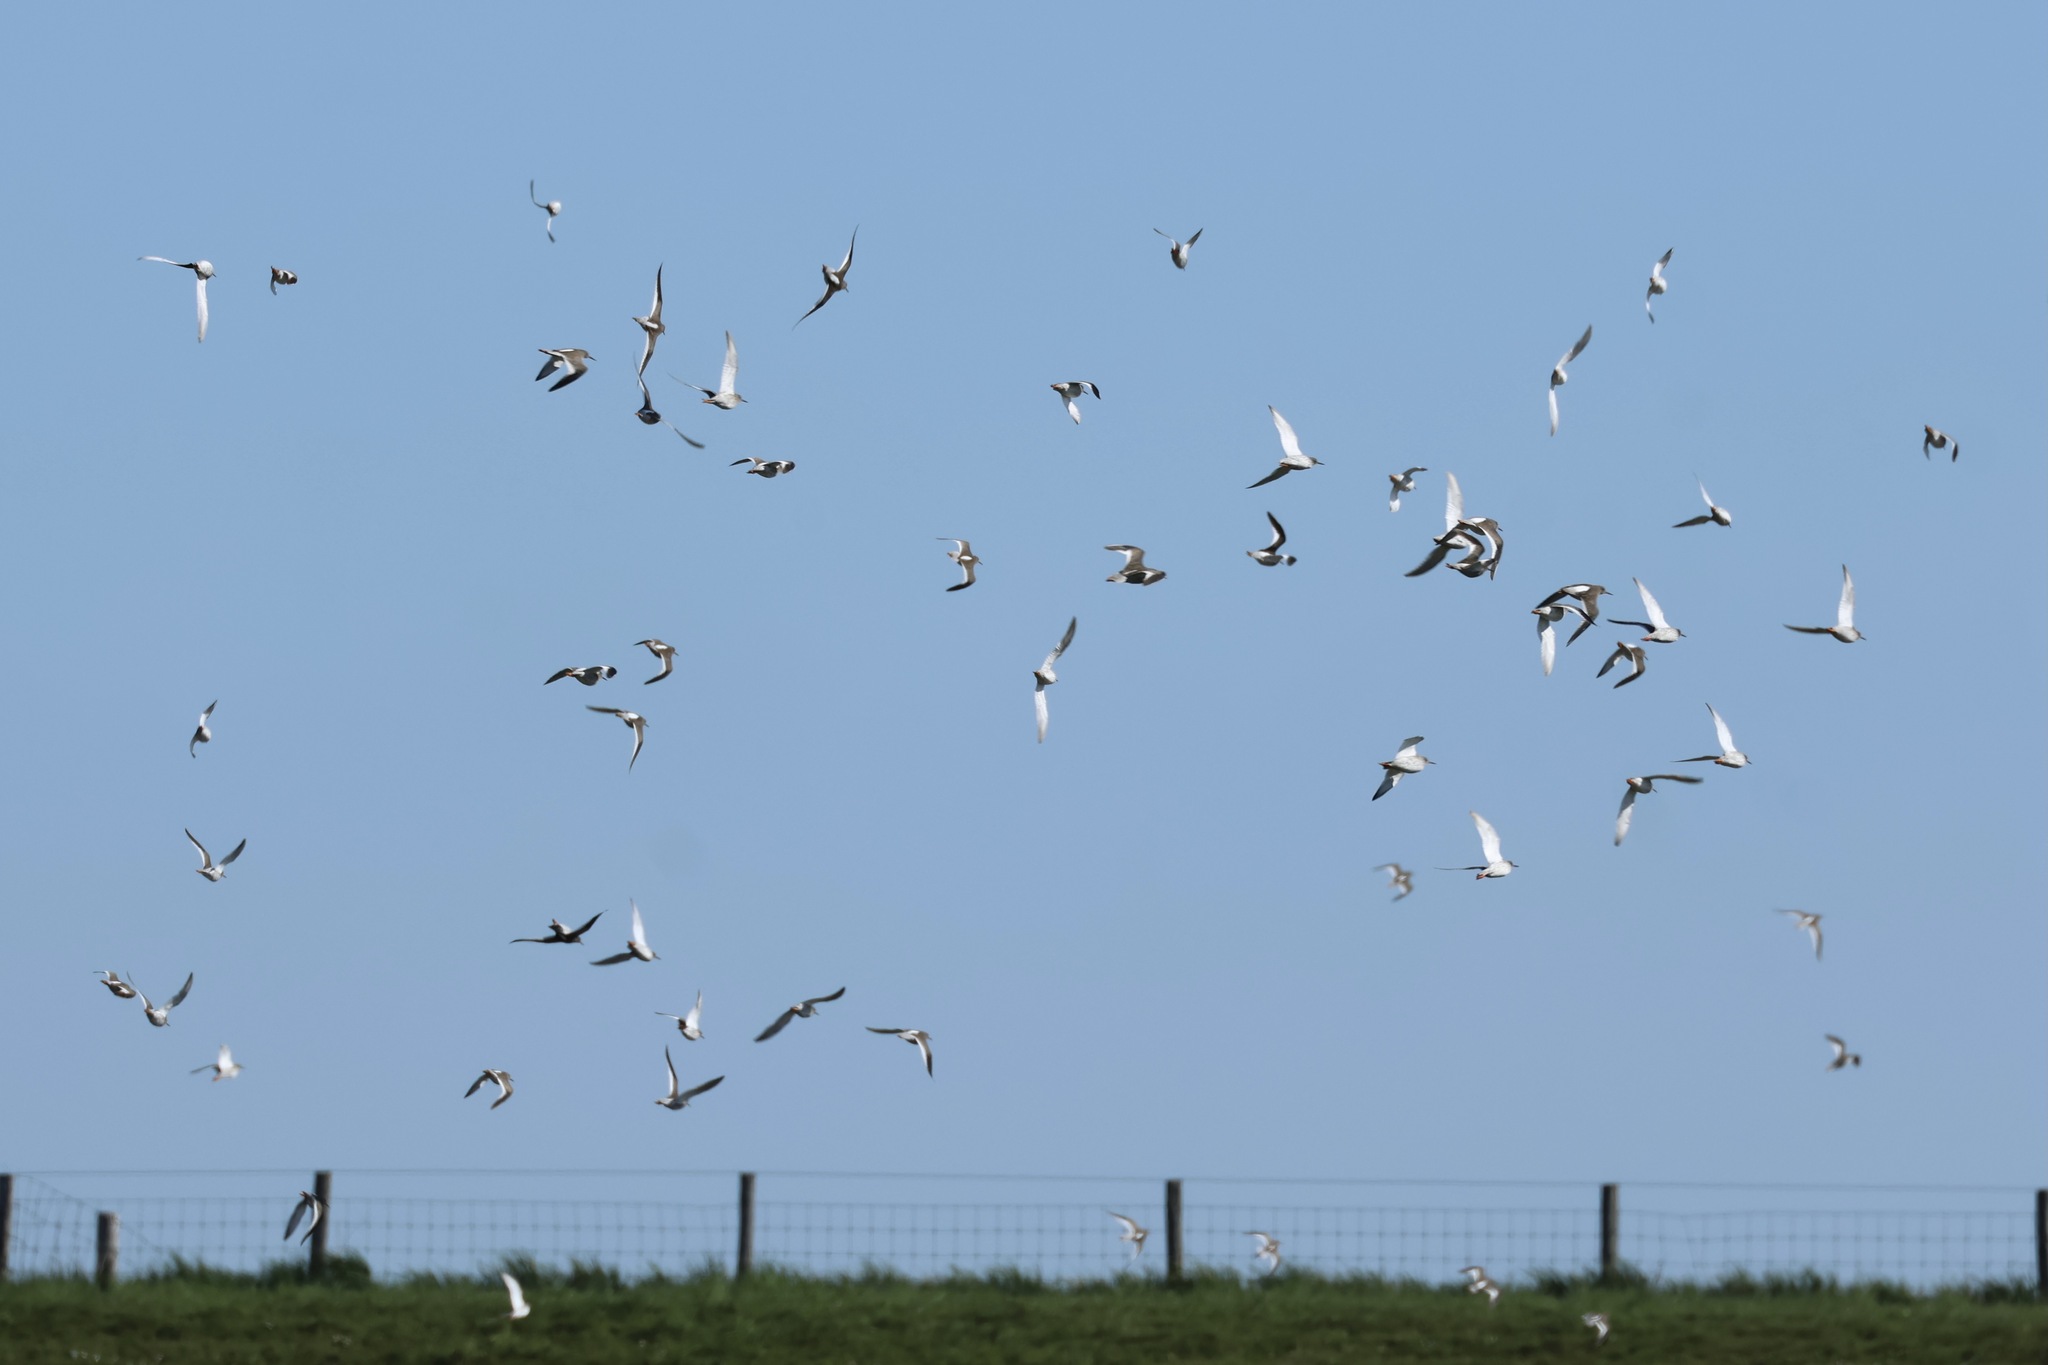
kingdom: Animalia
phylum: Chordata
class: Aves
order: Charadriiformes
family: Scolopacidae
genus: Tringa
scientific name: Tringa totanus
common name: Common redshank
